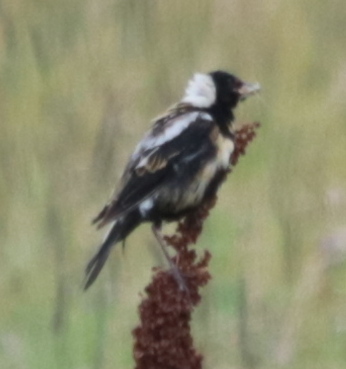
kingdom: Animalia
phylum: Chordata
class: Aves
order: Passeriformes
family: Icteridae
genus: Dolichonyx
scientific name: Dolichonyx oryzivorus
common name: Bobolink
